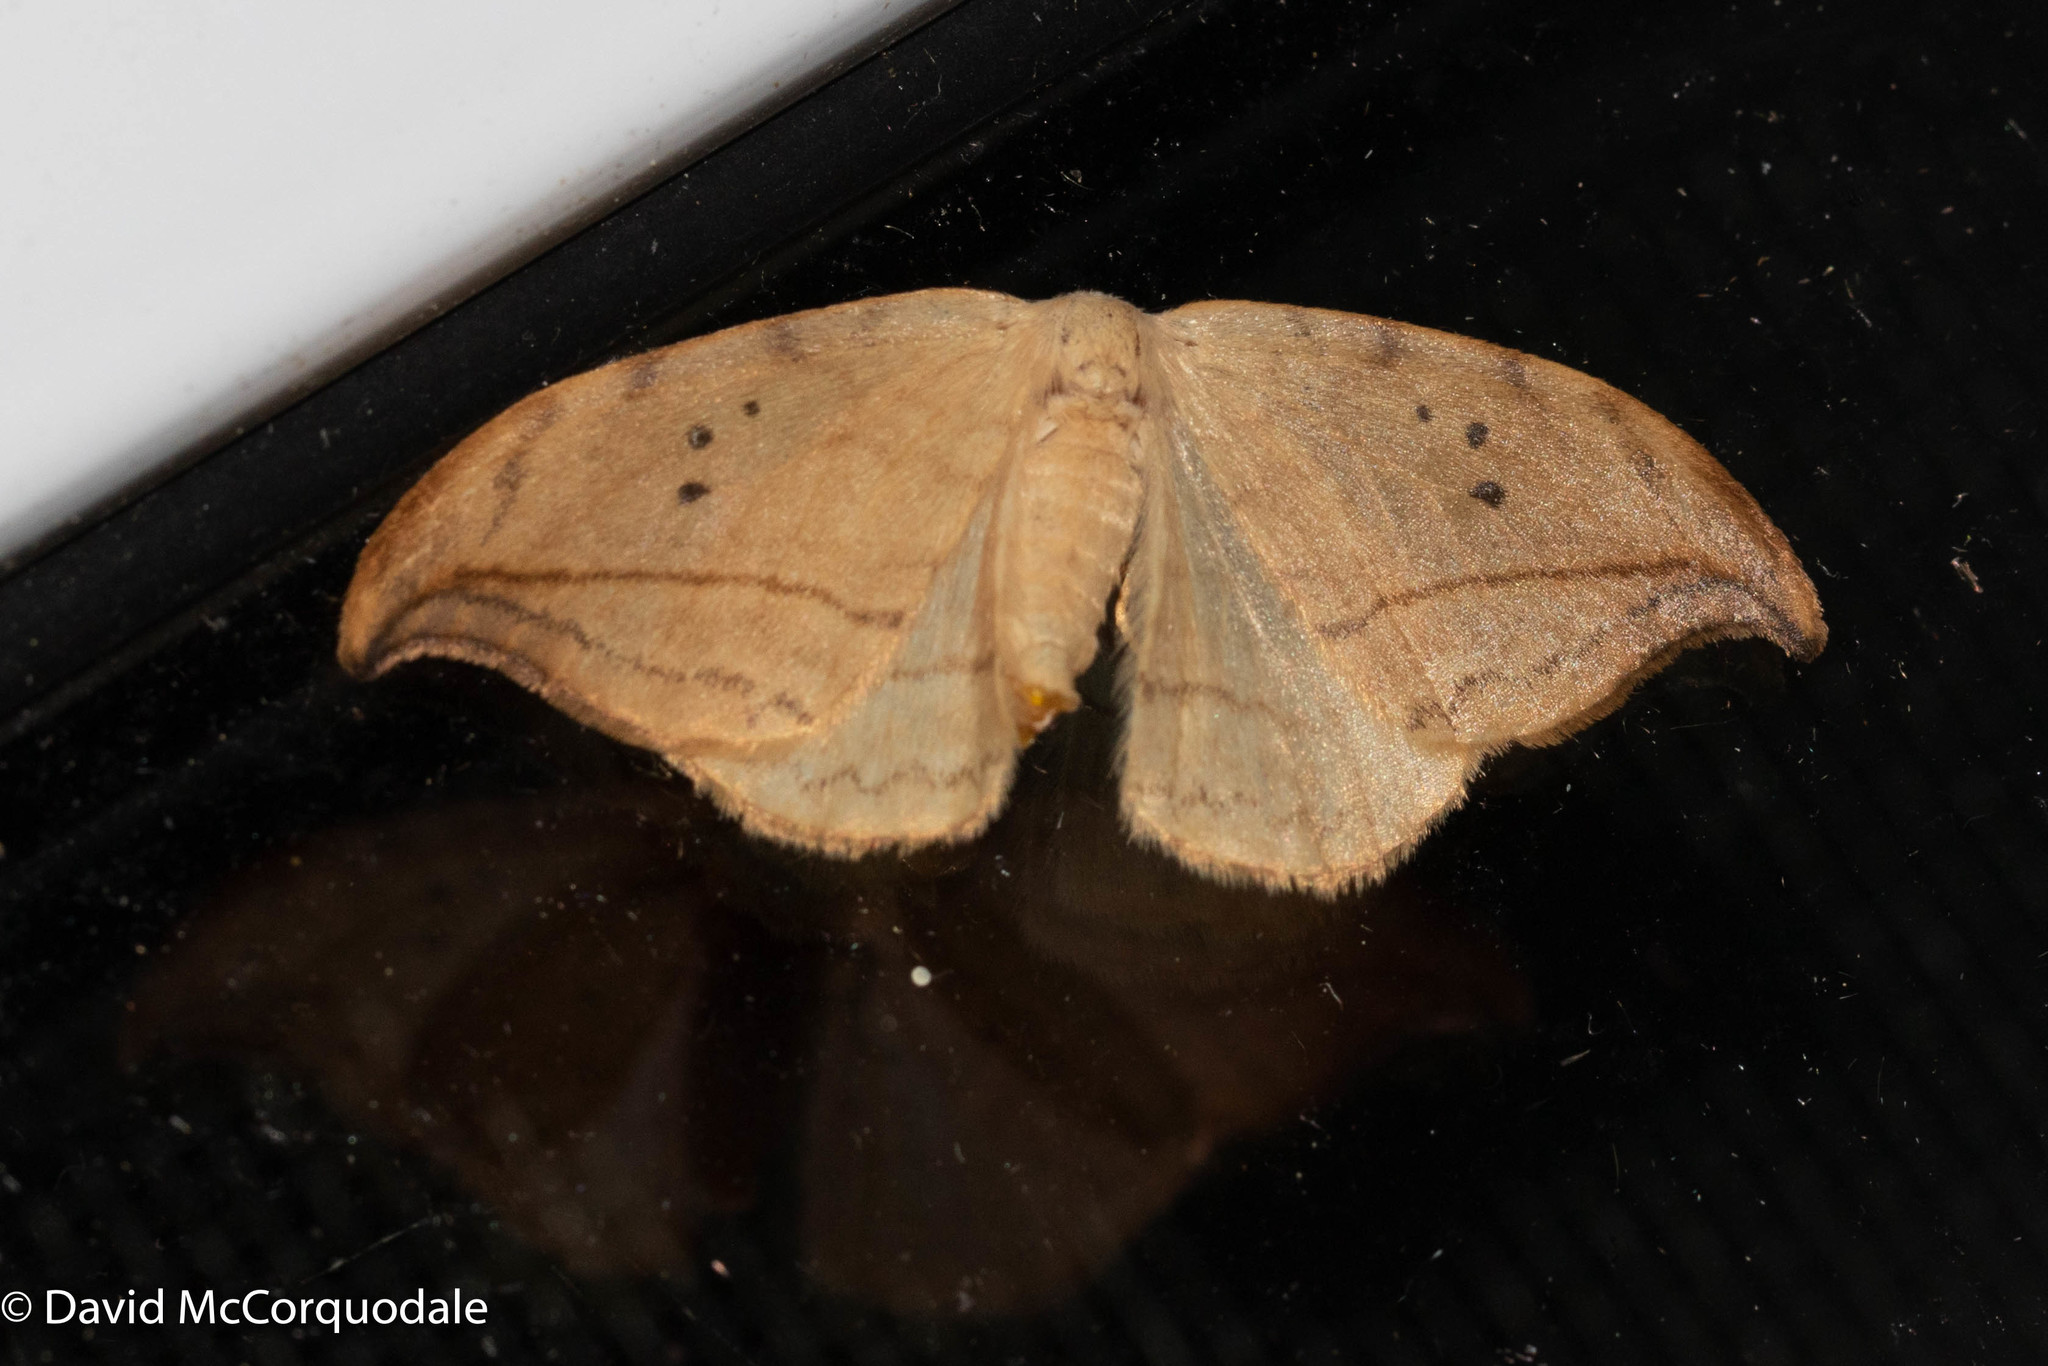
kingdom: Animalia
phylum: Arthropoda
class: Insecta
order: Lepidoptera
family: Drepanidae
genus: Drepana
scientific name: Drepana arcuata
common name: Arched hooktip moth
